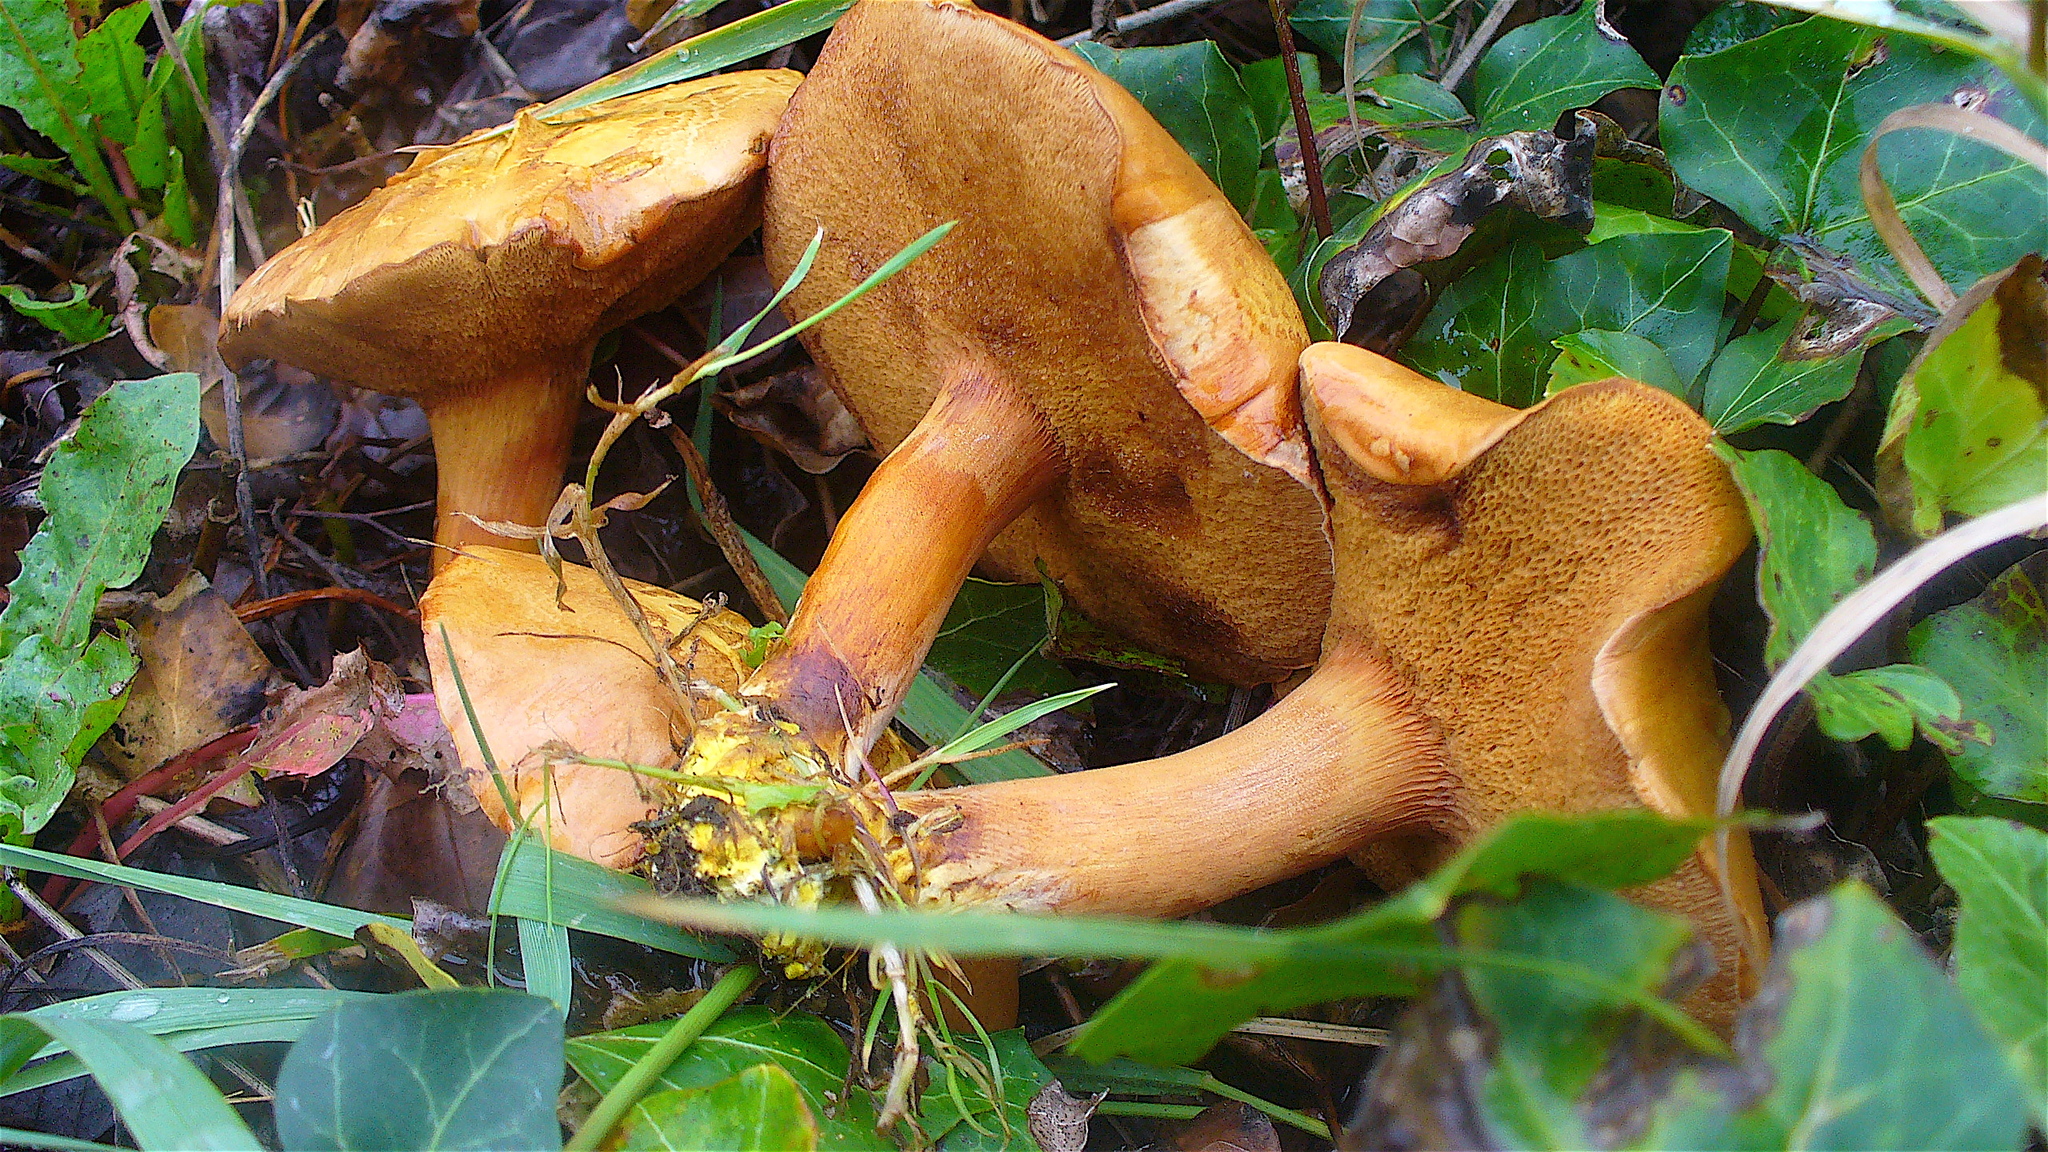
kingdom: Fungi
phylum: Basidiomycota
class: Agaricomycetes
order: Boletales
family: Boletaceae
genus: Chalciporus
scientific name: Chalciporus piperatus
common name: Peppery bolete
